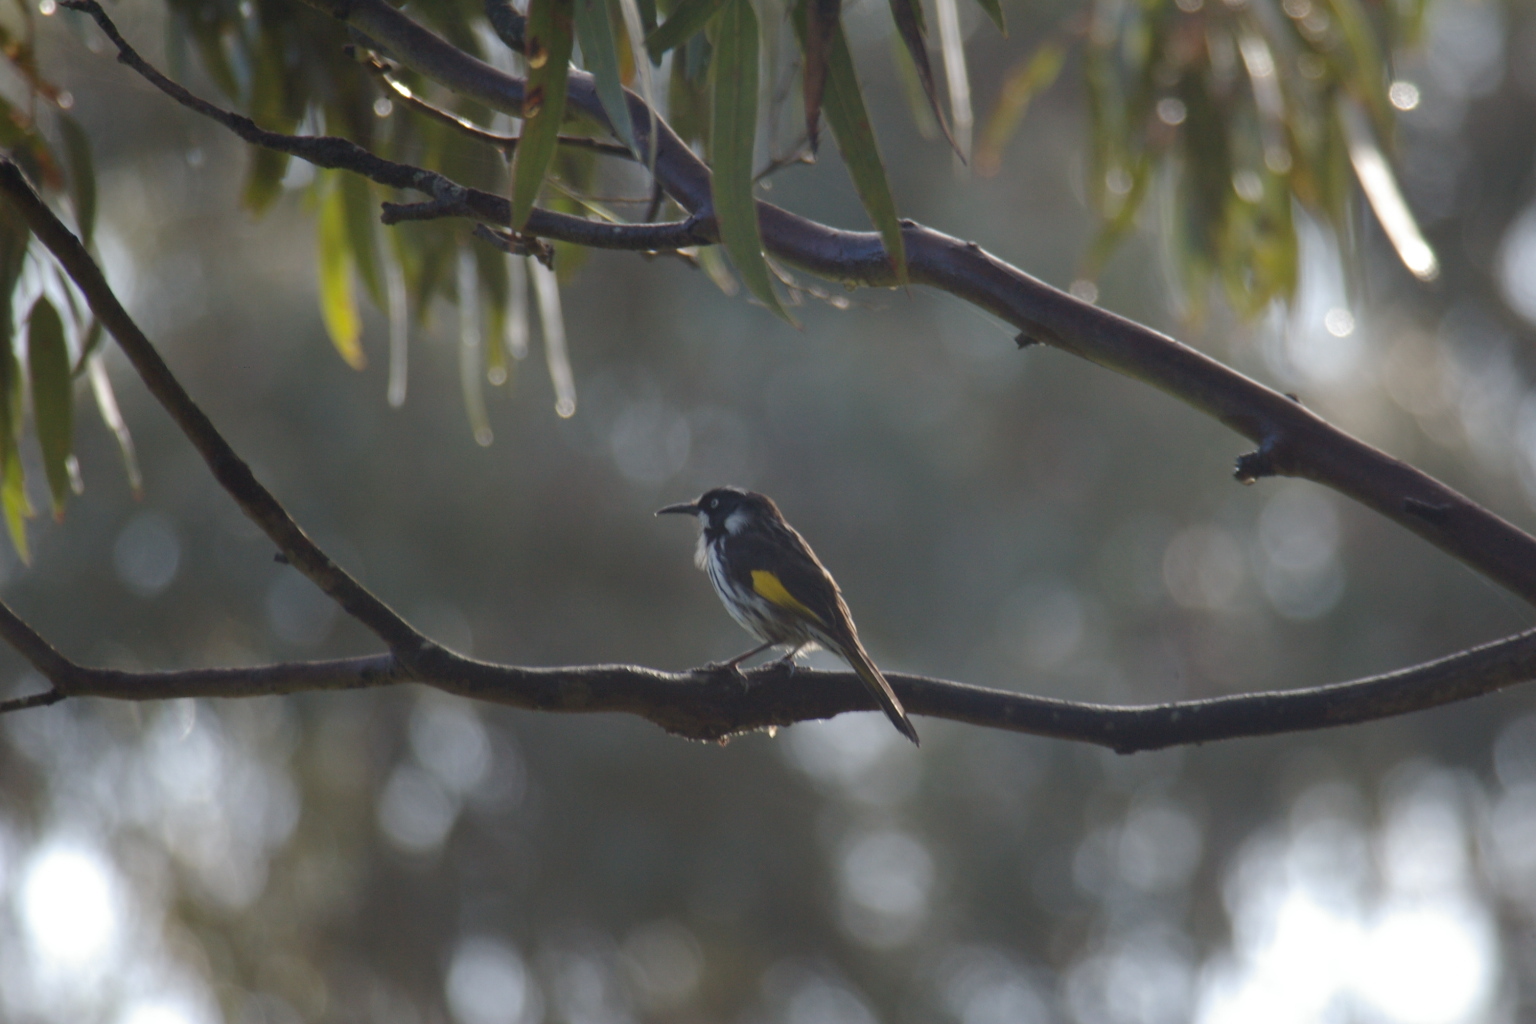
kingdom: Animalia
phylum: Chordata
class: Aves
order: Passeriformes
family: Meliphagidae
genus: Phylidonyris
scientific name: Phylidonyris novaehollandiae
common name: New holland honeyeater
